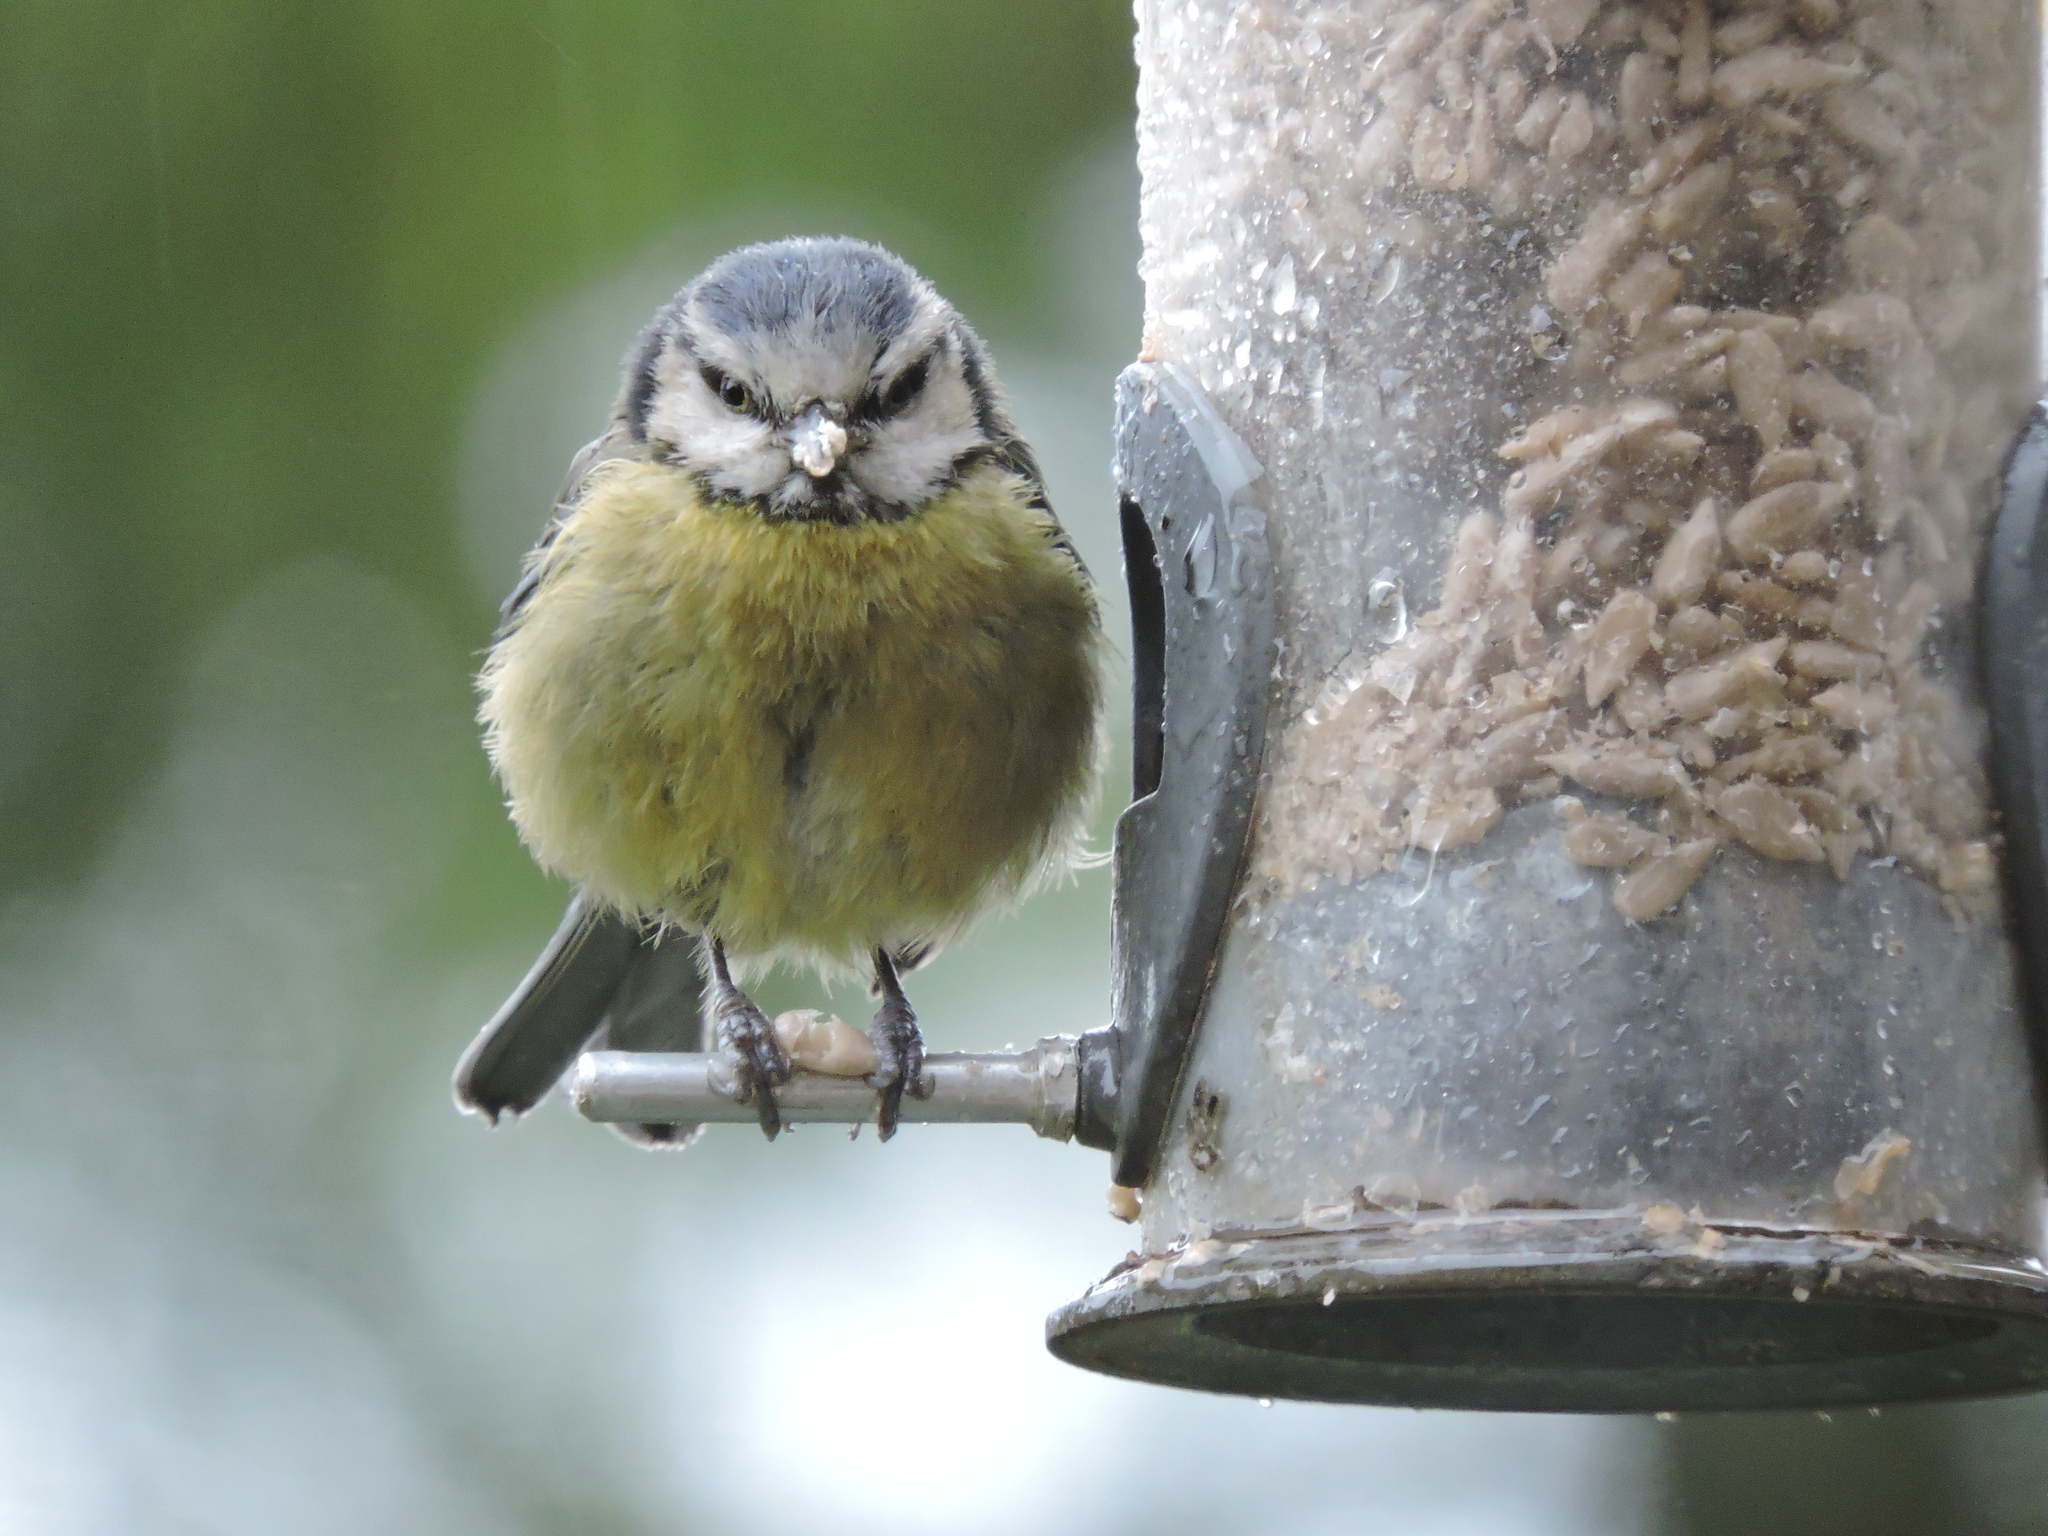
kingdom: Animalia
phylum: Chordata
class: Aves
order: Passeriformes
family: Paridae
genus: Cyanistes
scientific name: Cyanistes caeruleus
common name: Eurasian blue tit
